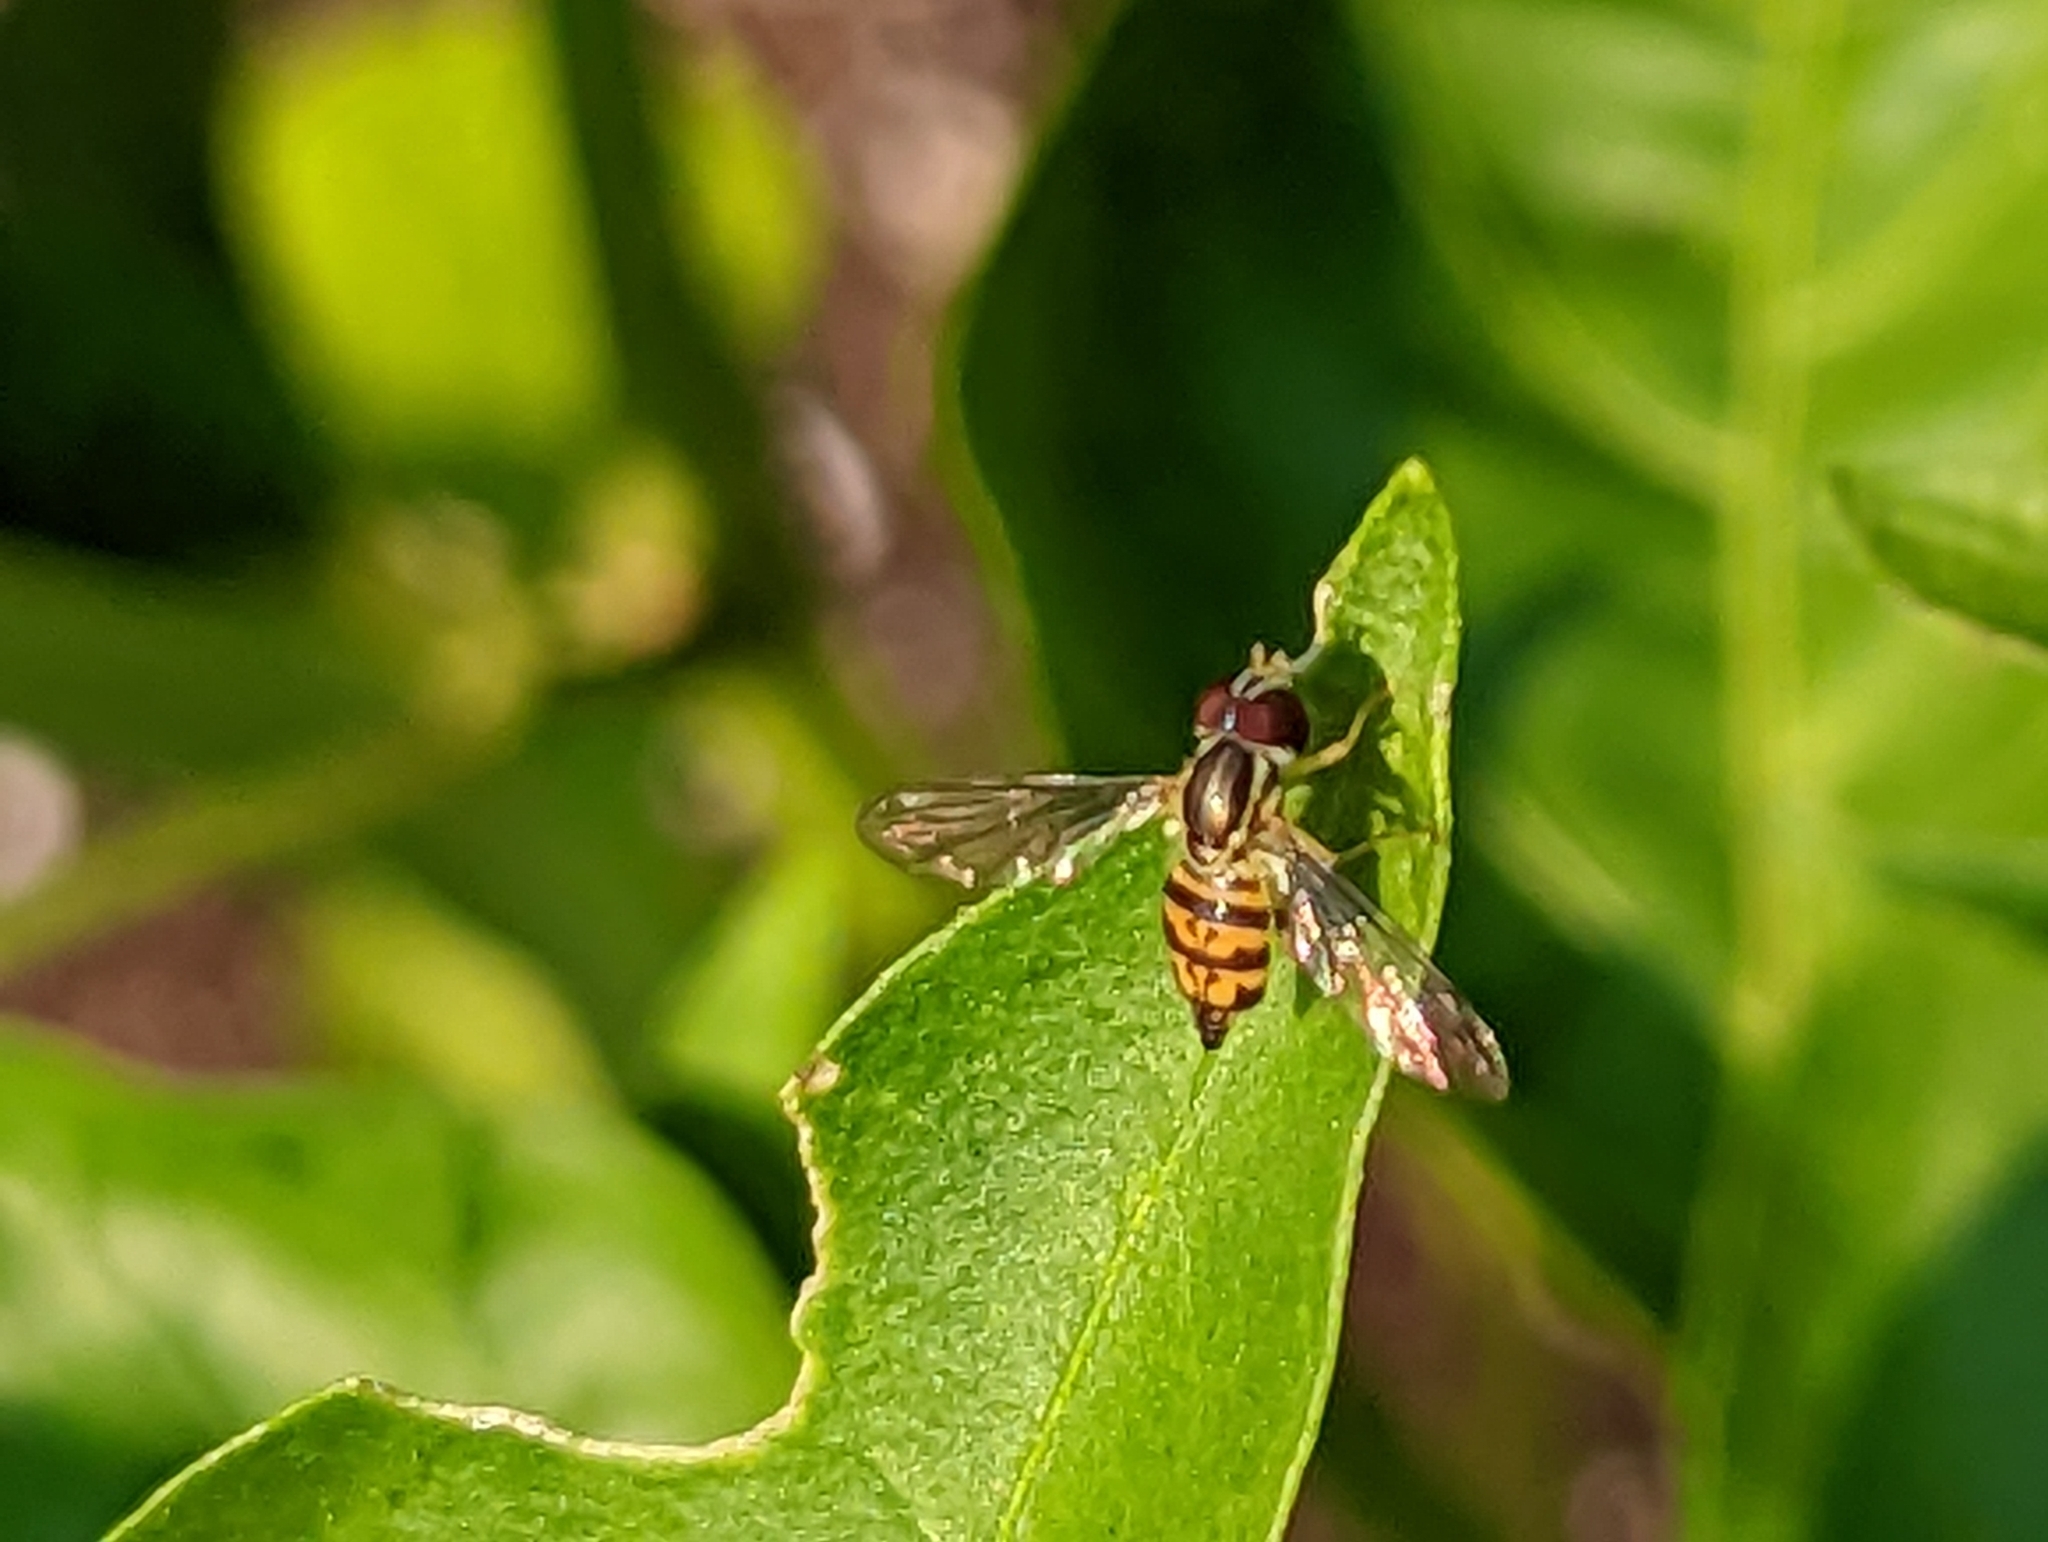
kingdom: Animalia
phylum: Arthropoda
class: Insecta
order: Diptera
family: Syrphidae
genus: Toxomerus
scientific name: Toxomerus geminatus
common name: Eastern calligrapher
